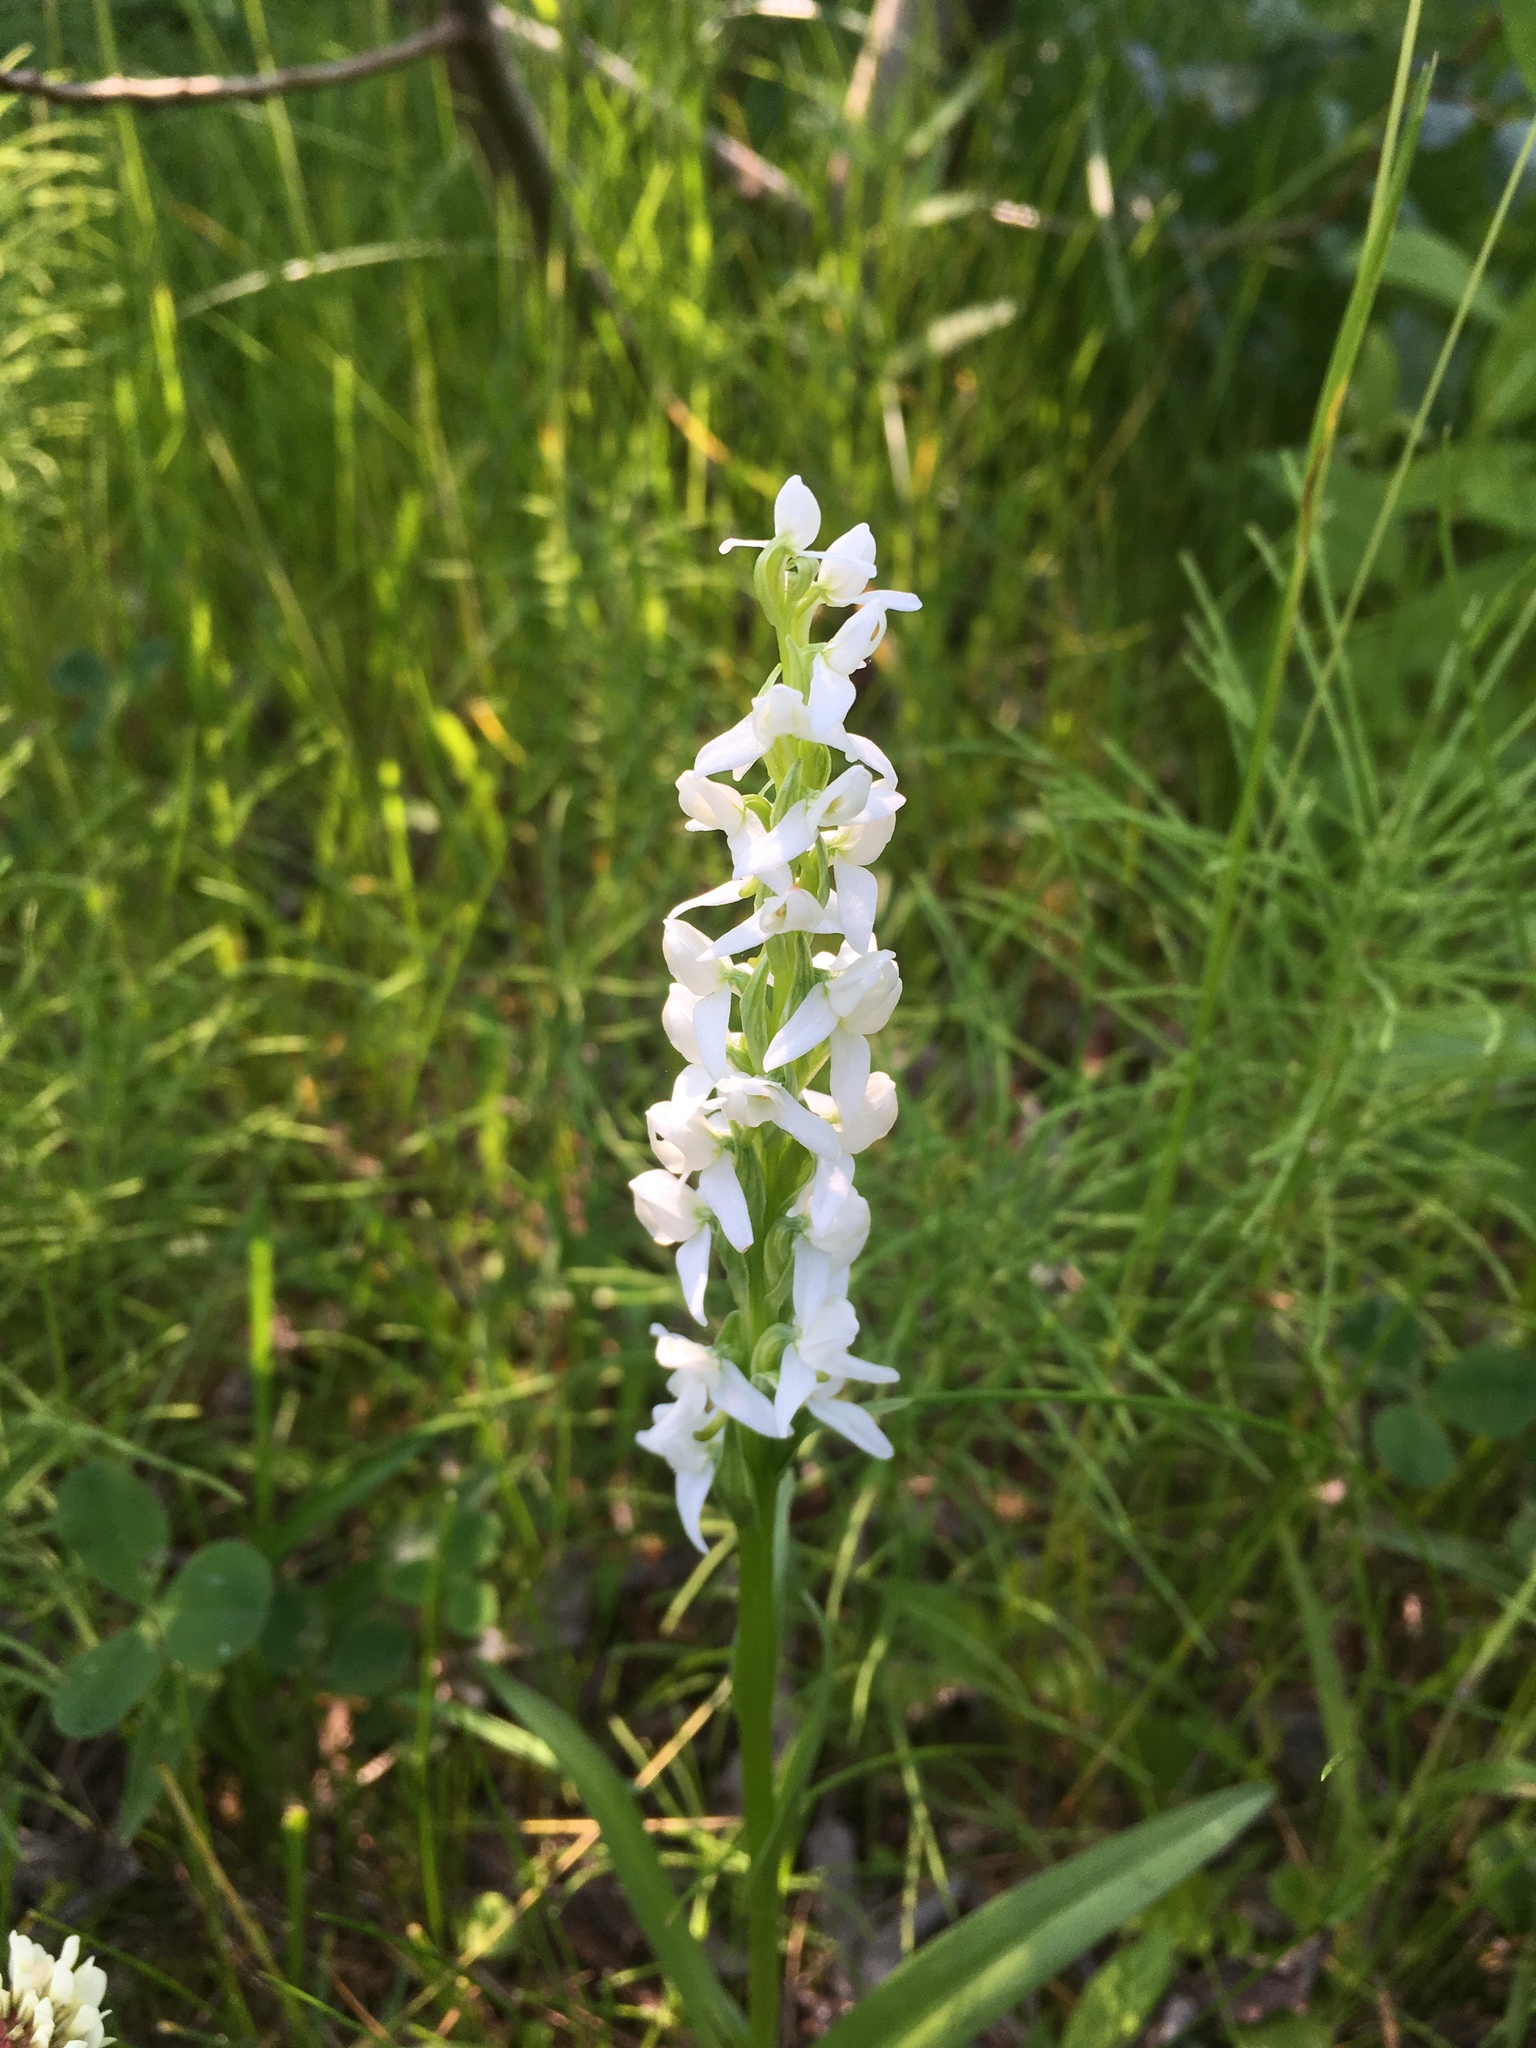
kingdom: Plantae
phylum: Tracheophyta
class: Liliopsida
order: Asparagales
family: Orchidaceae
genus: Platanthera
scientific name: Platanthera dilatata
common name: Bog candles
